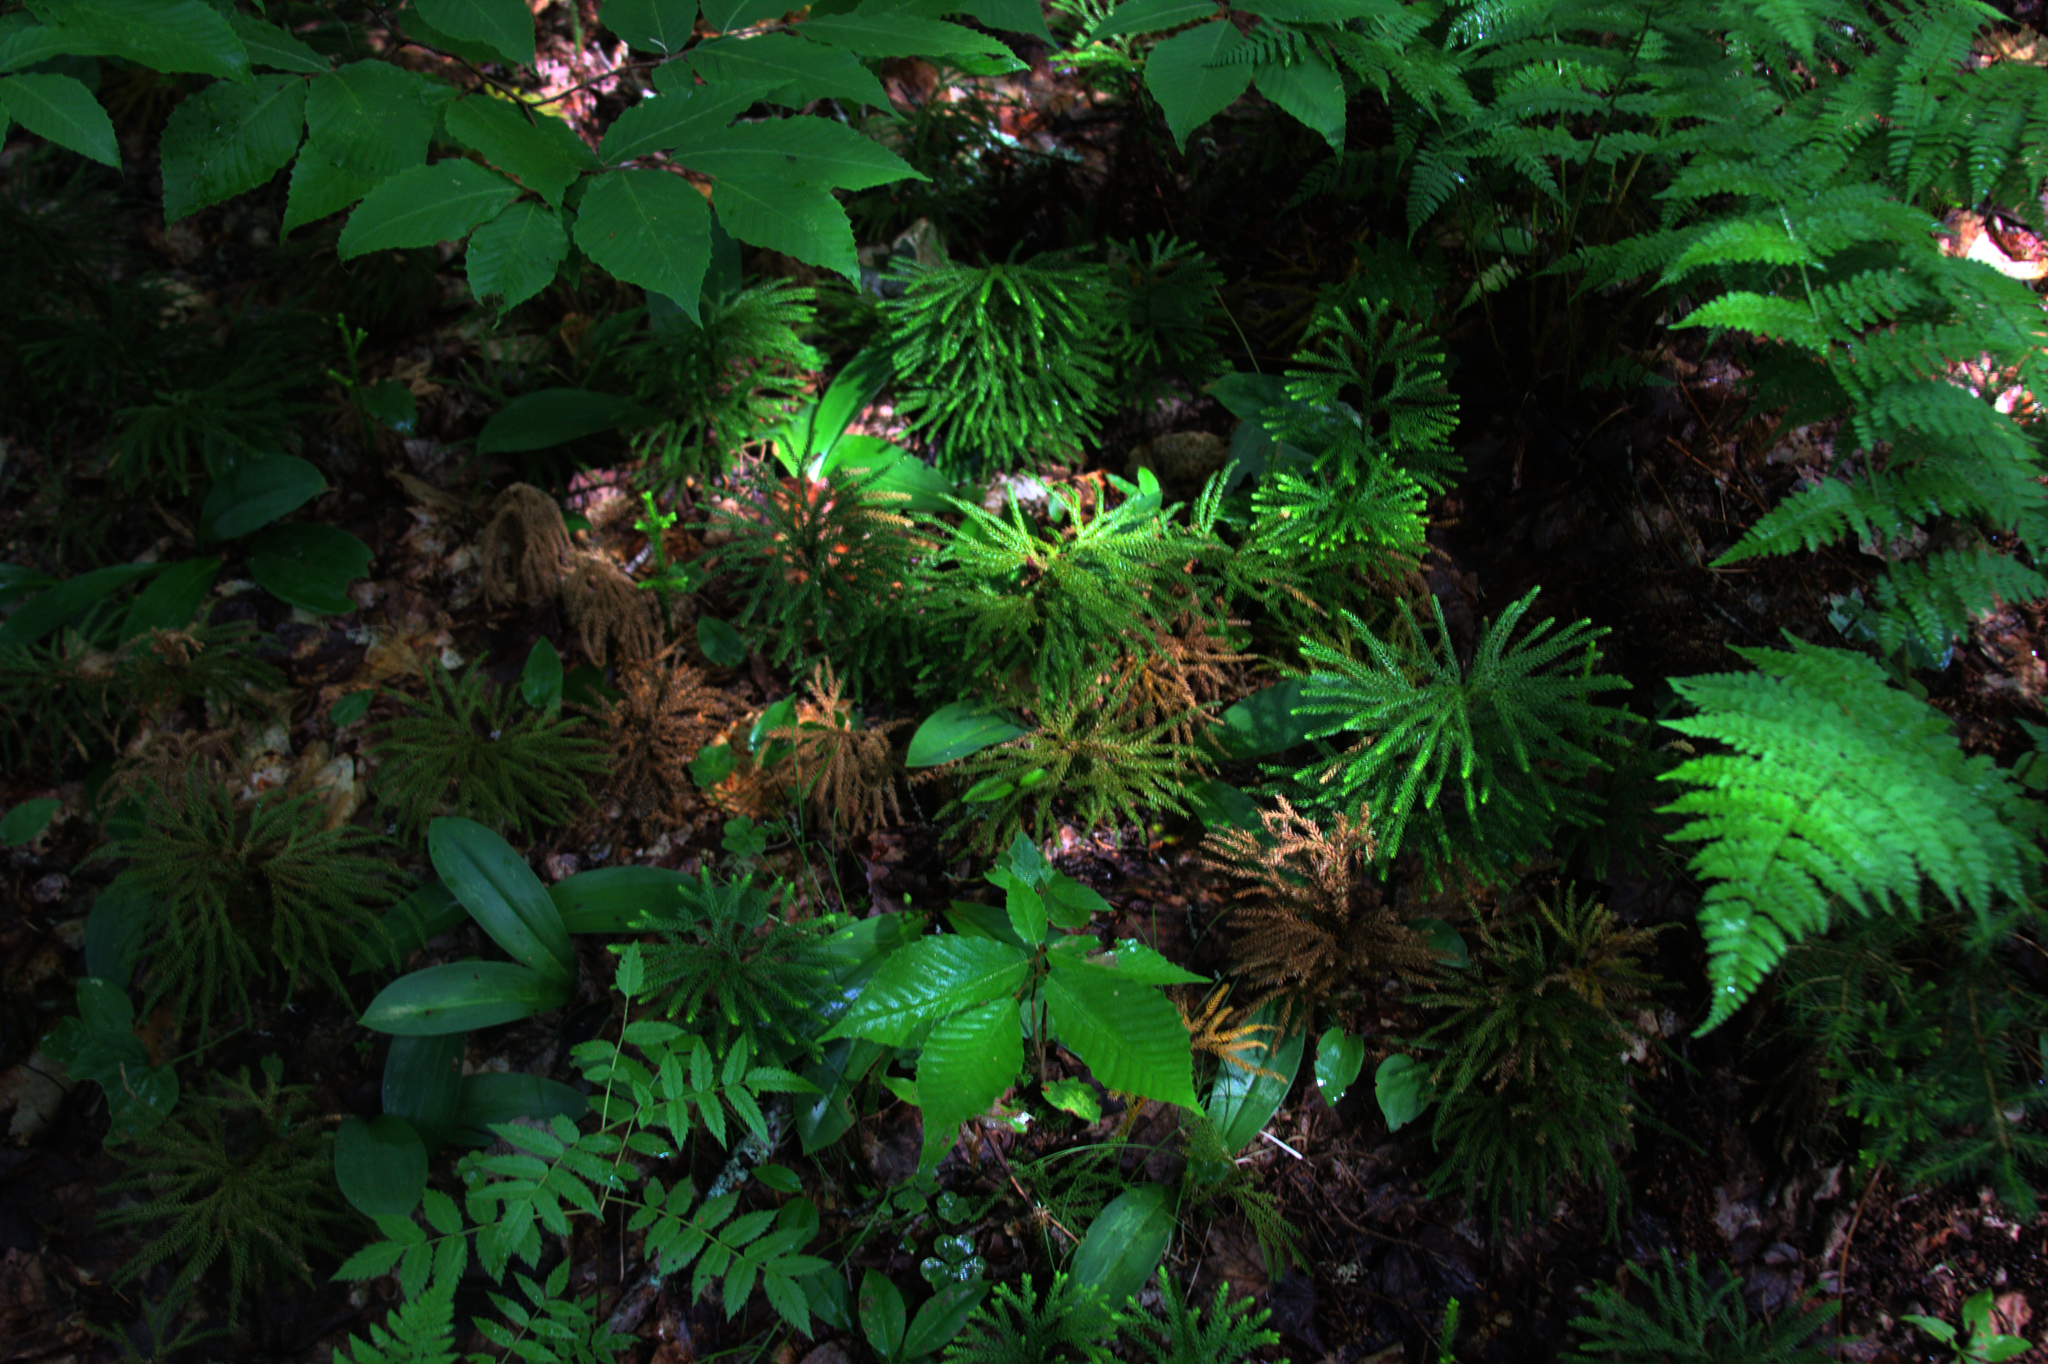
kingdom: Plantae
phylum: Tracheophyta
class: Magnoliopsida
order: Fagales
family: Fagaceae
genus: Fagus
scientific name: Fagus grandifolia
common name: American beech
